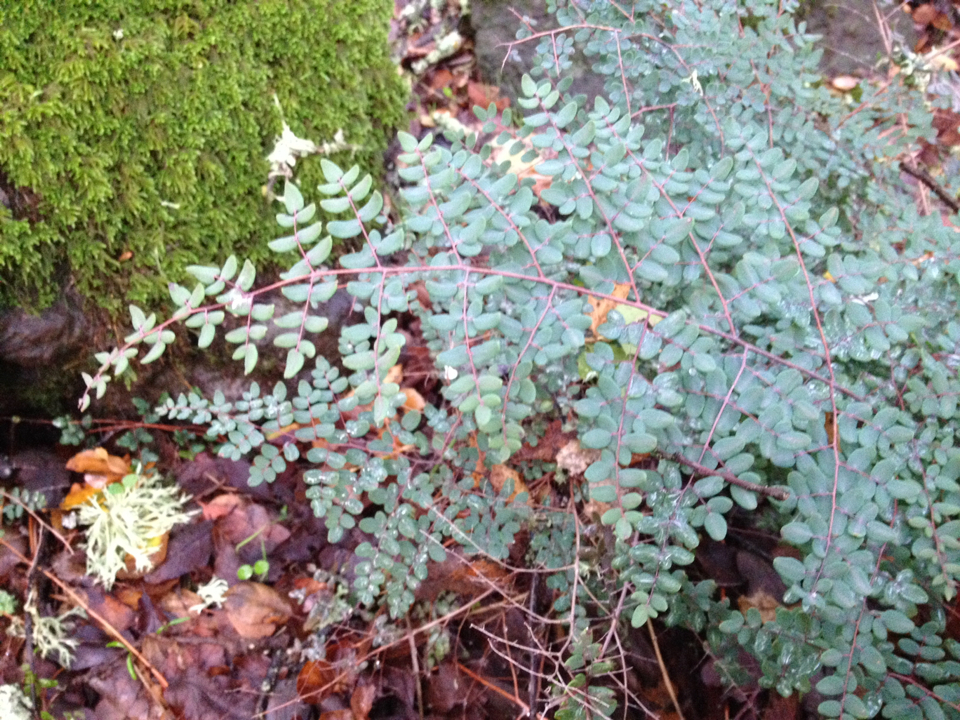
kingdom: Plantae
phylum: Tracheophyta
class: Polypodiopsida
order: Polypodiales
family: Pteridaceae
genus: Pellaea
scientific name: Pellaea andromedifolia
